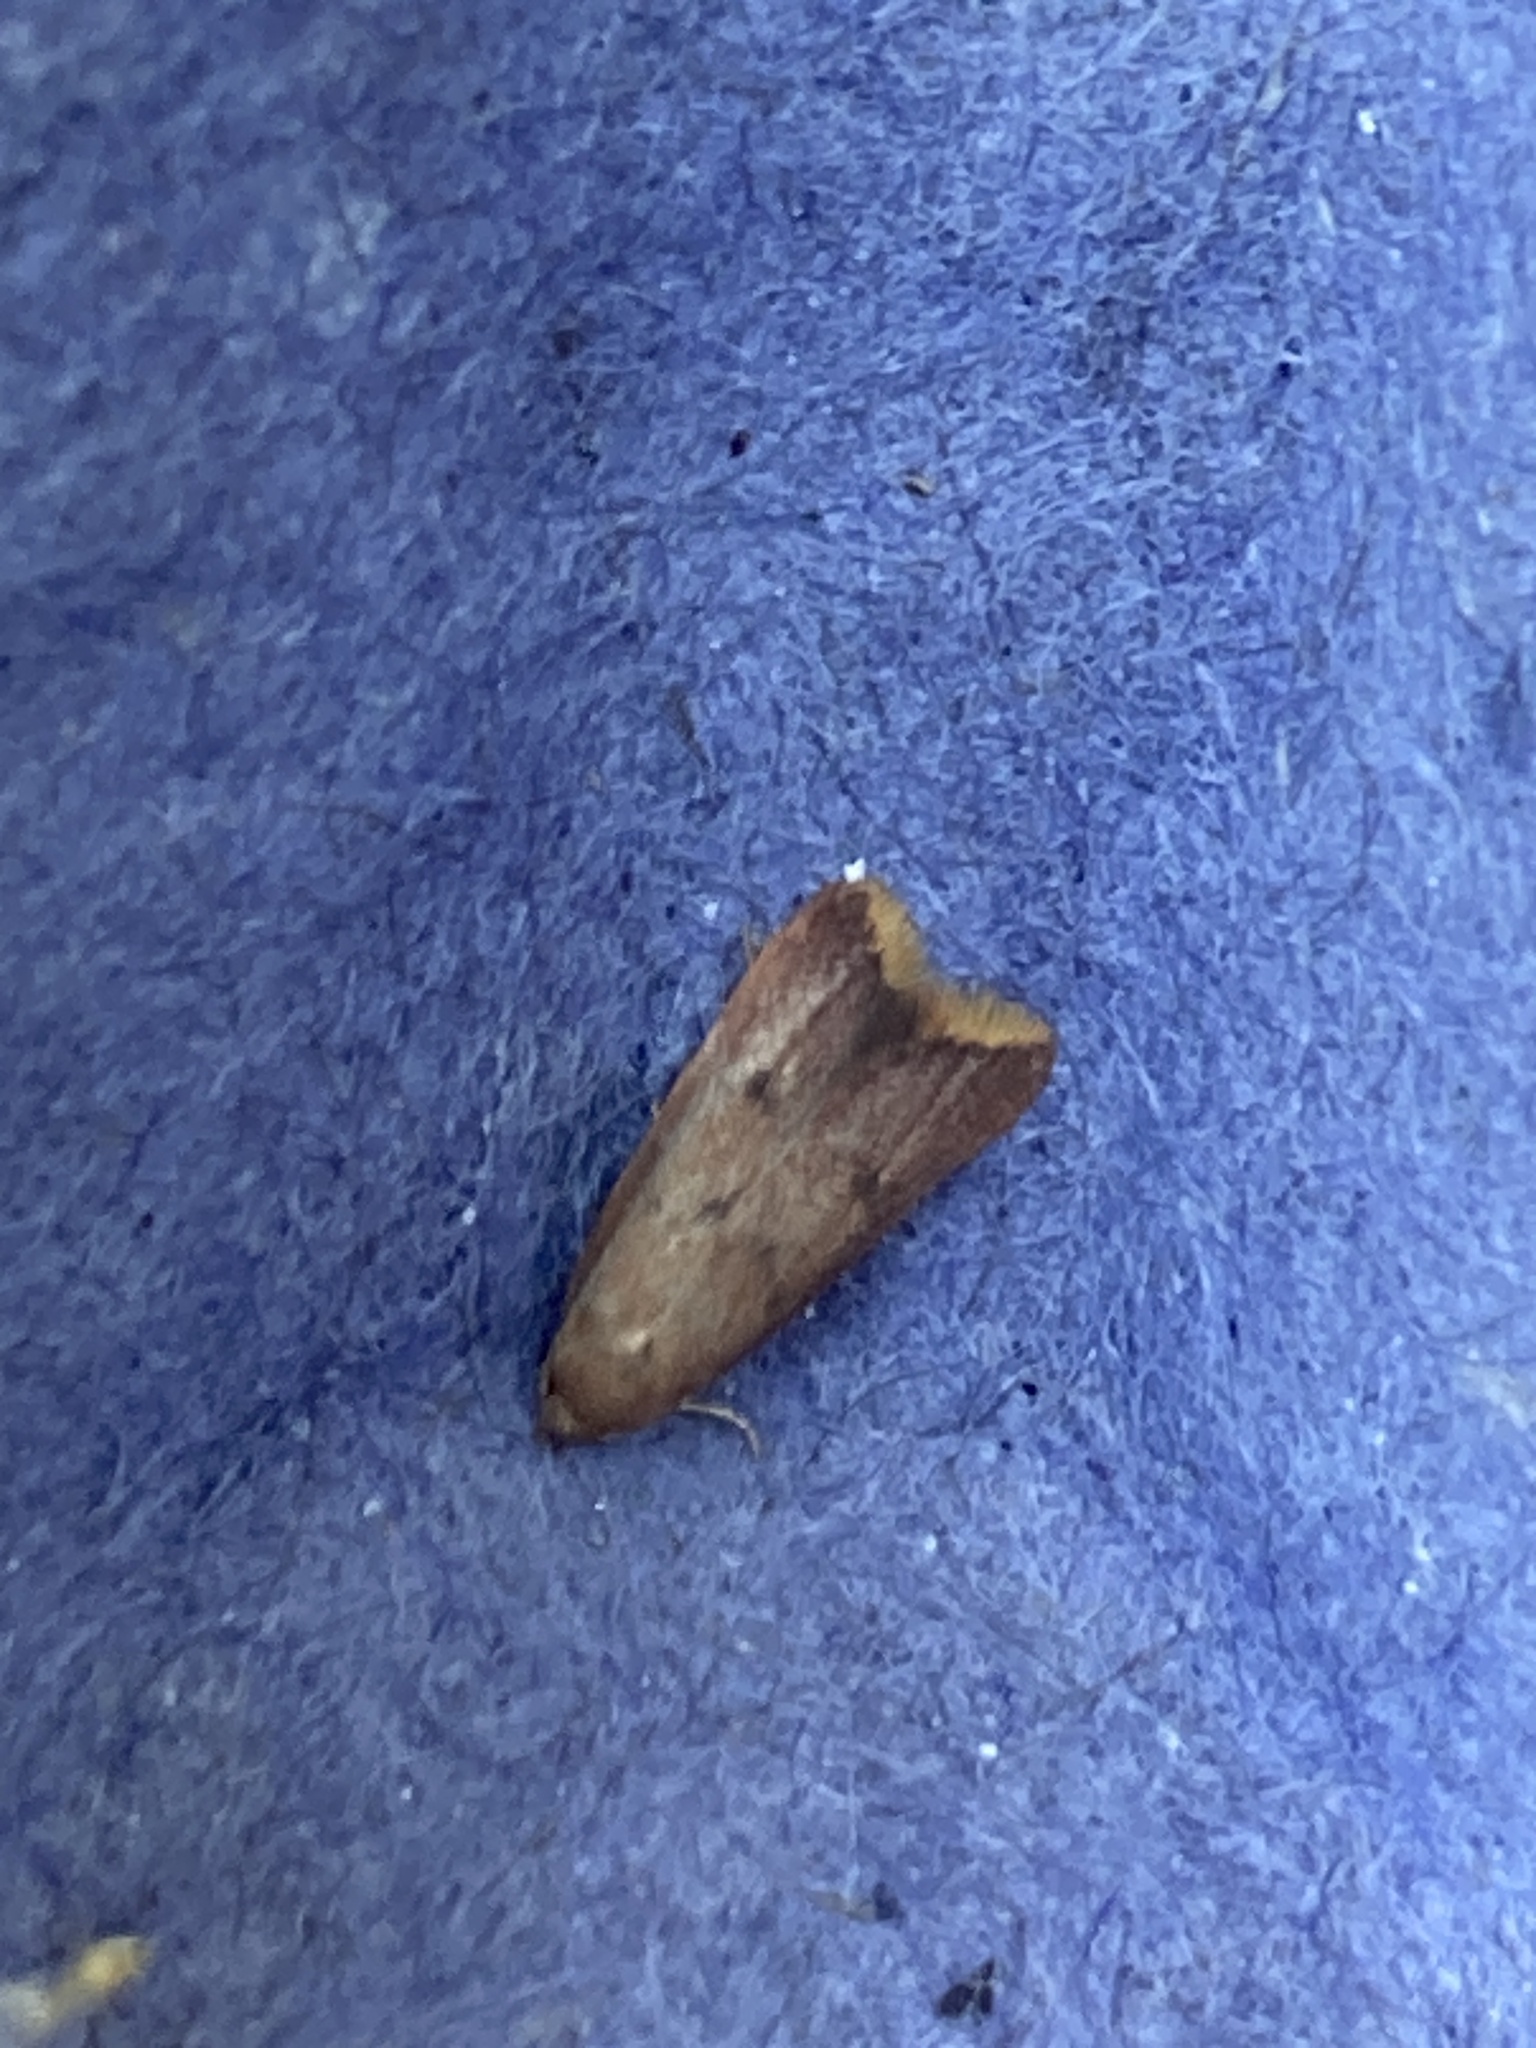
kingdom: Animalia
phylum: Arthropoda
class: Insecta
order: Lepidoptera
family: Oecophoridae
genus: Tachystola
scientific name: Tachystola acroxantha
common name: Ruddy streak
